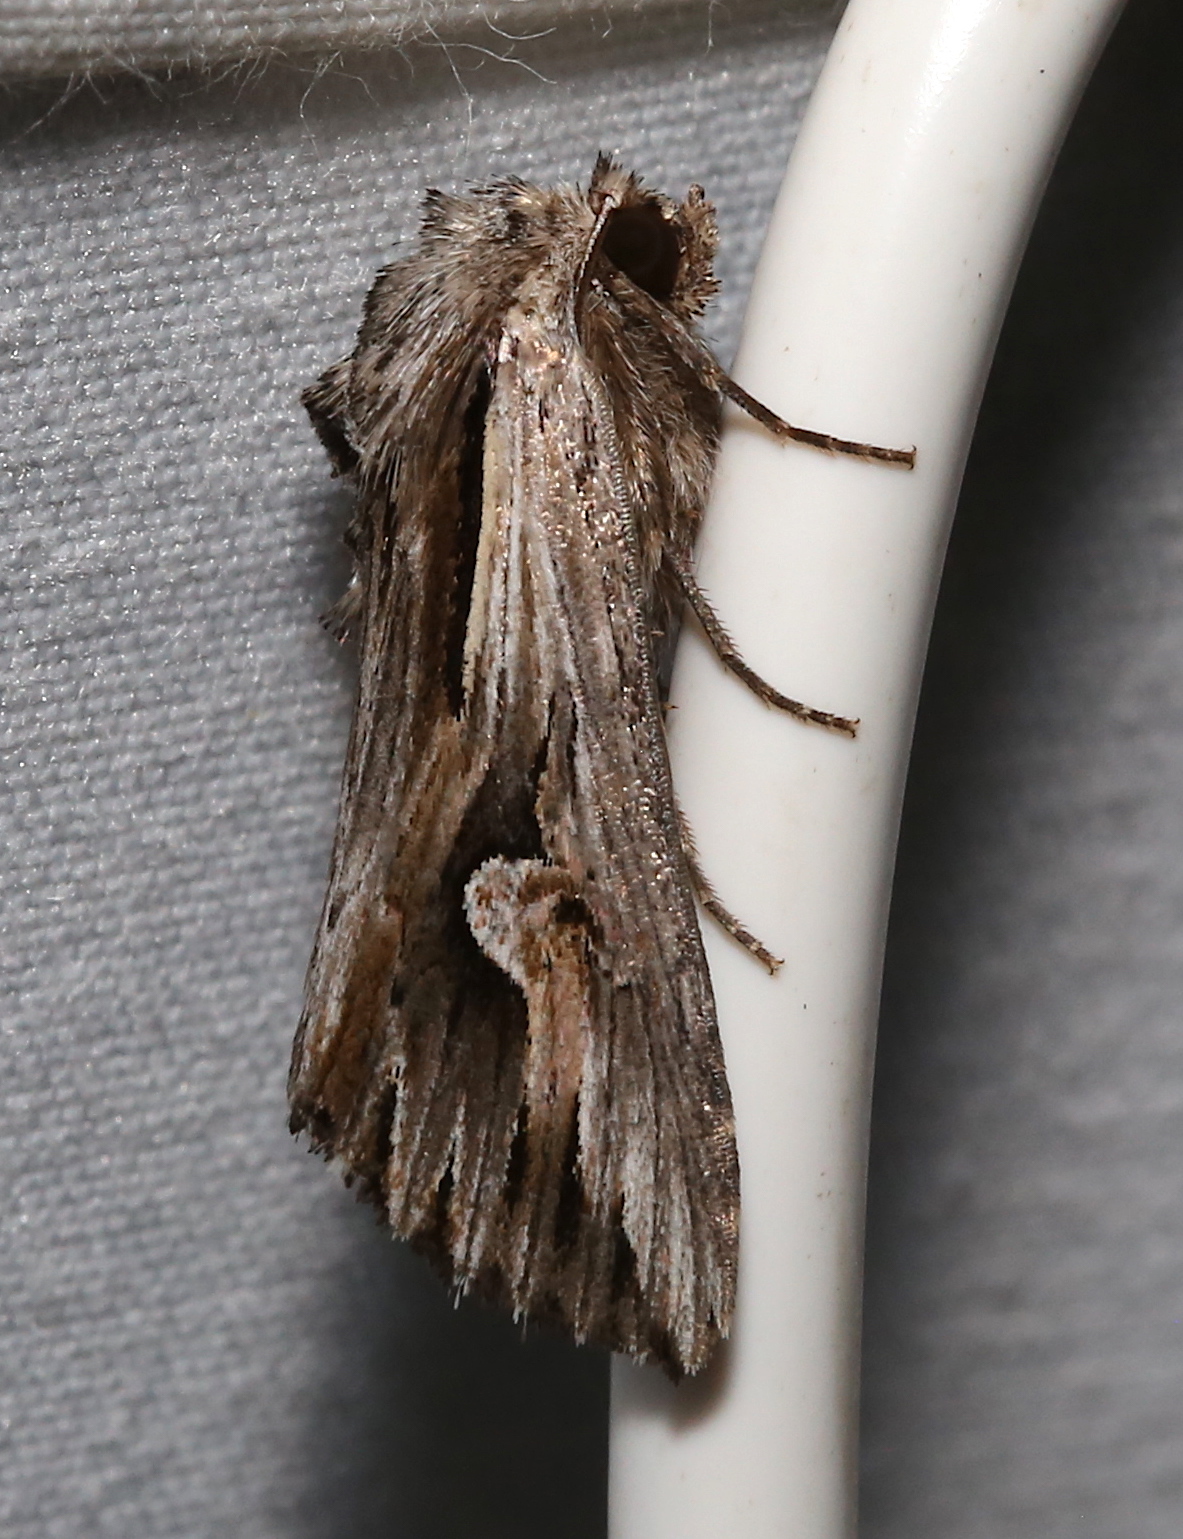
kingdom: Animalia
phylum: Arthropoda
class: Insecta
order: Lepidoptera
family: Noctuidae
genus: Nedra
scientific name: Nedra ramosula
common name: Gray half-spot
